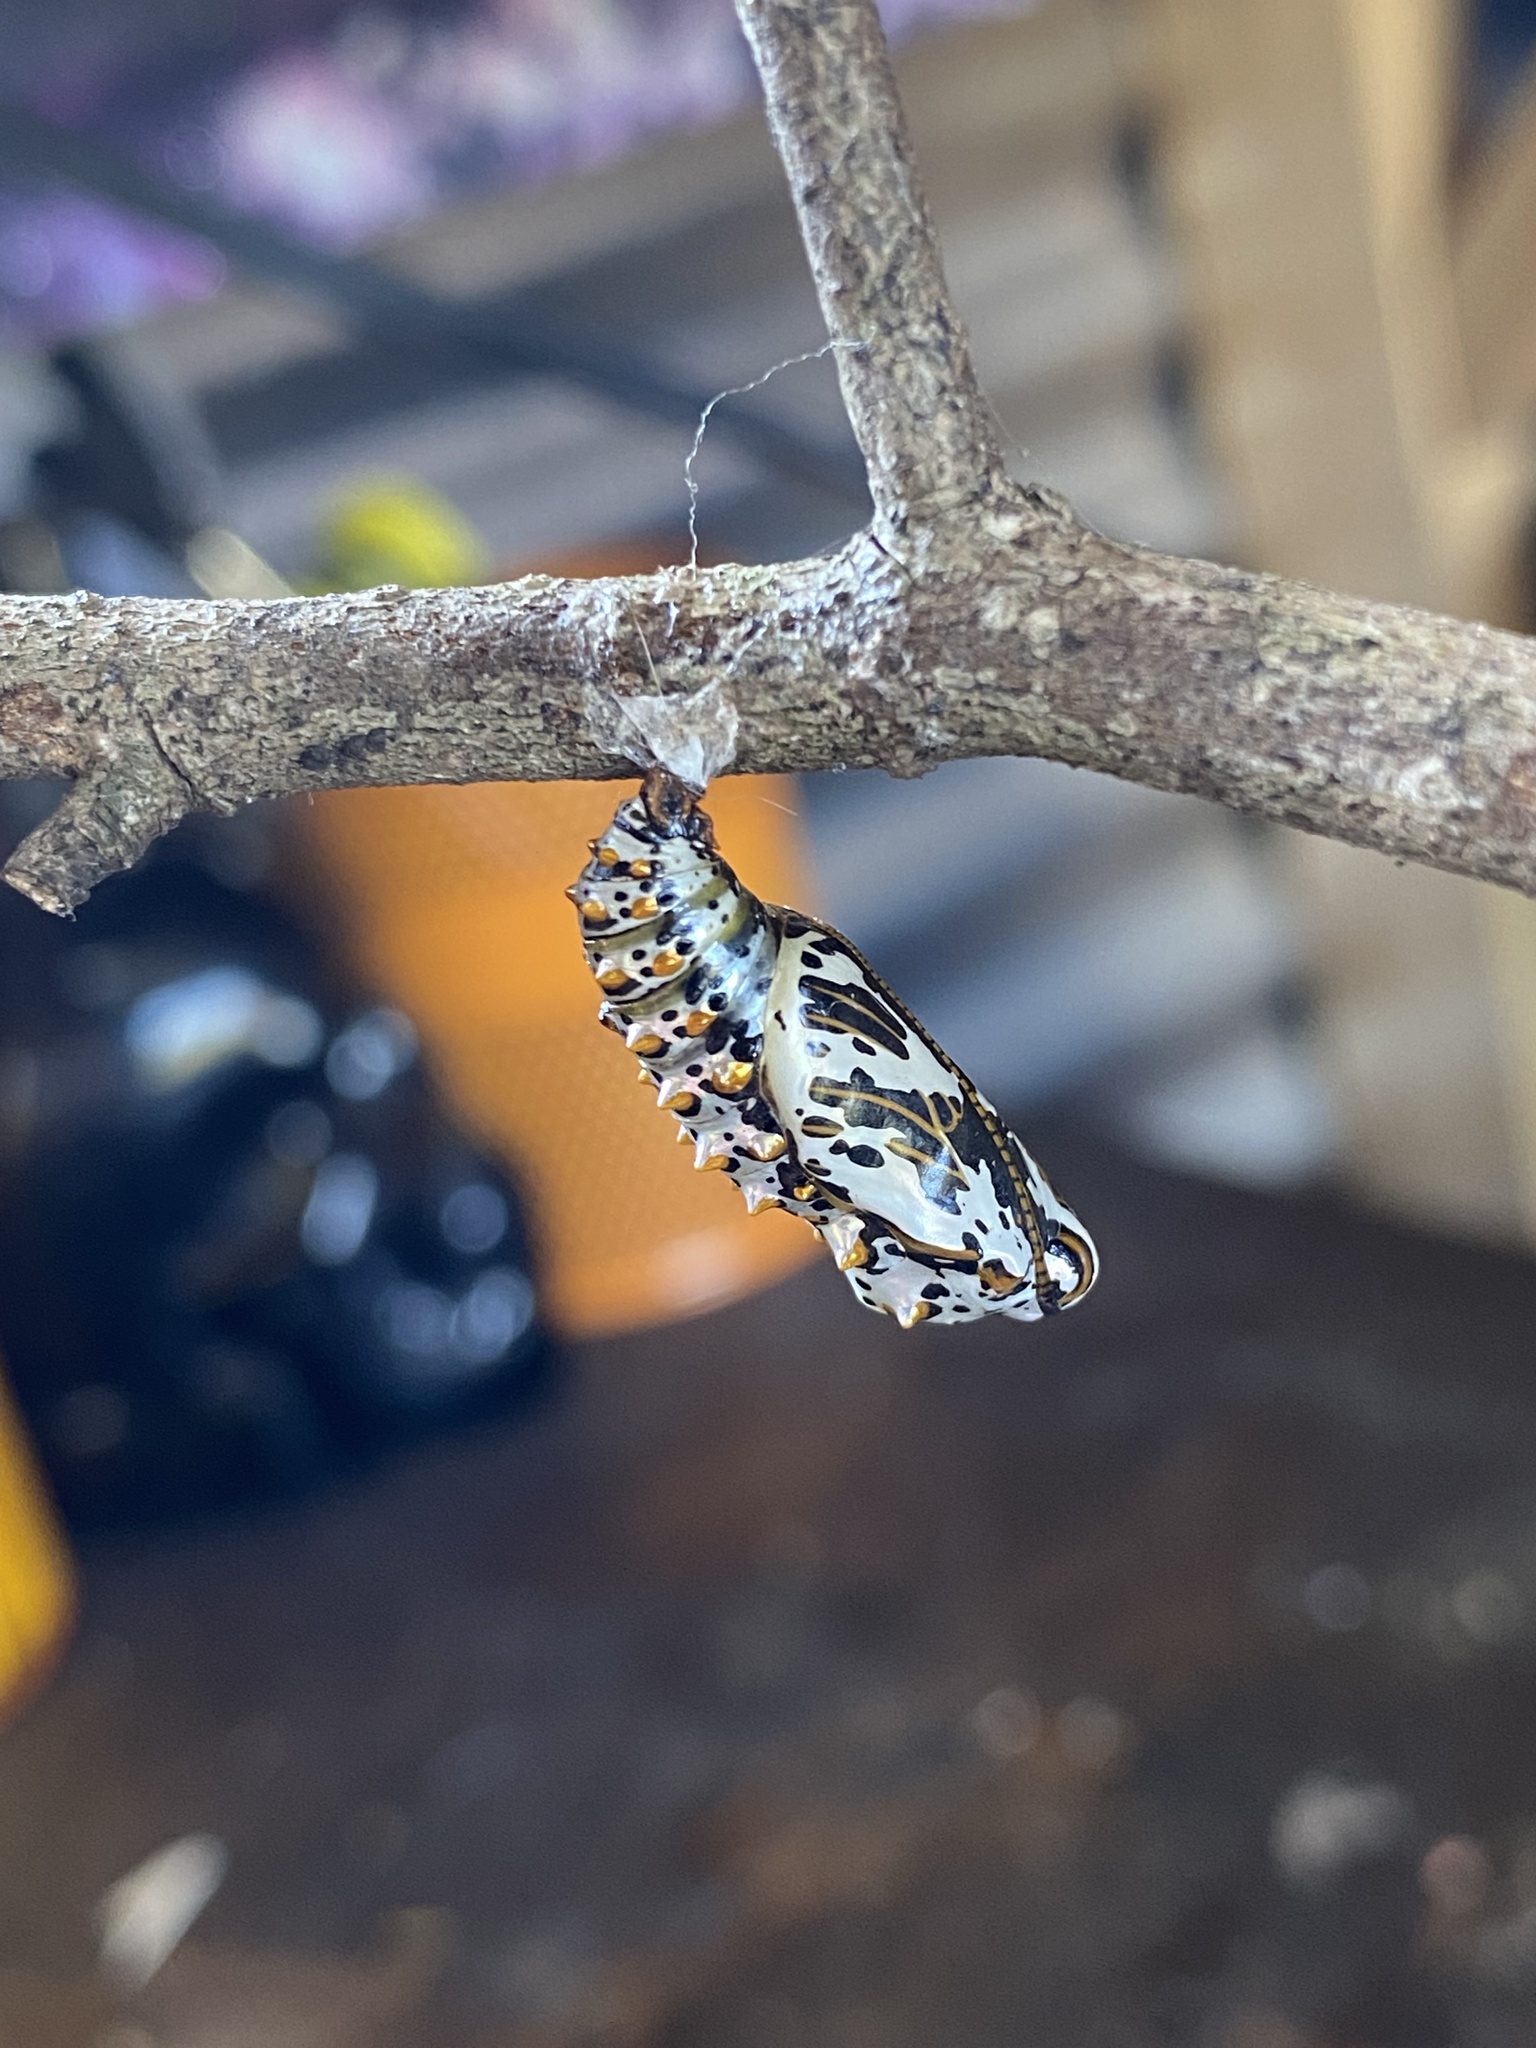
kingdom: Animalia
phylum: Arthropoda
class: Insecta
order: Lepidoptera
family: Nymphalidae
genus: Euptoieta
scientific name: Euptoieta claudia
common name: Variegated fritillary
